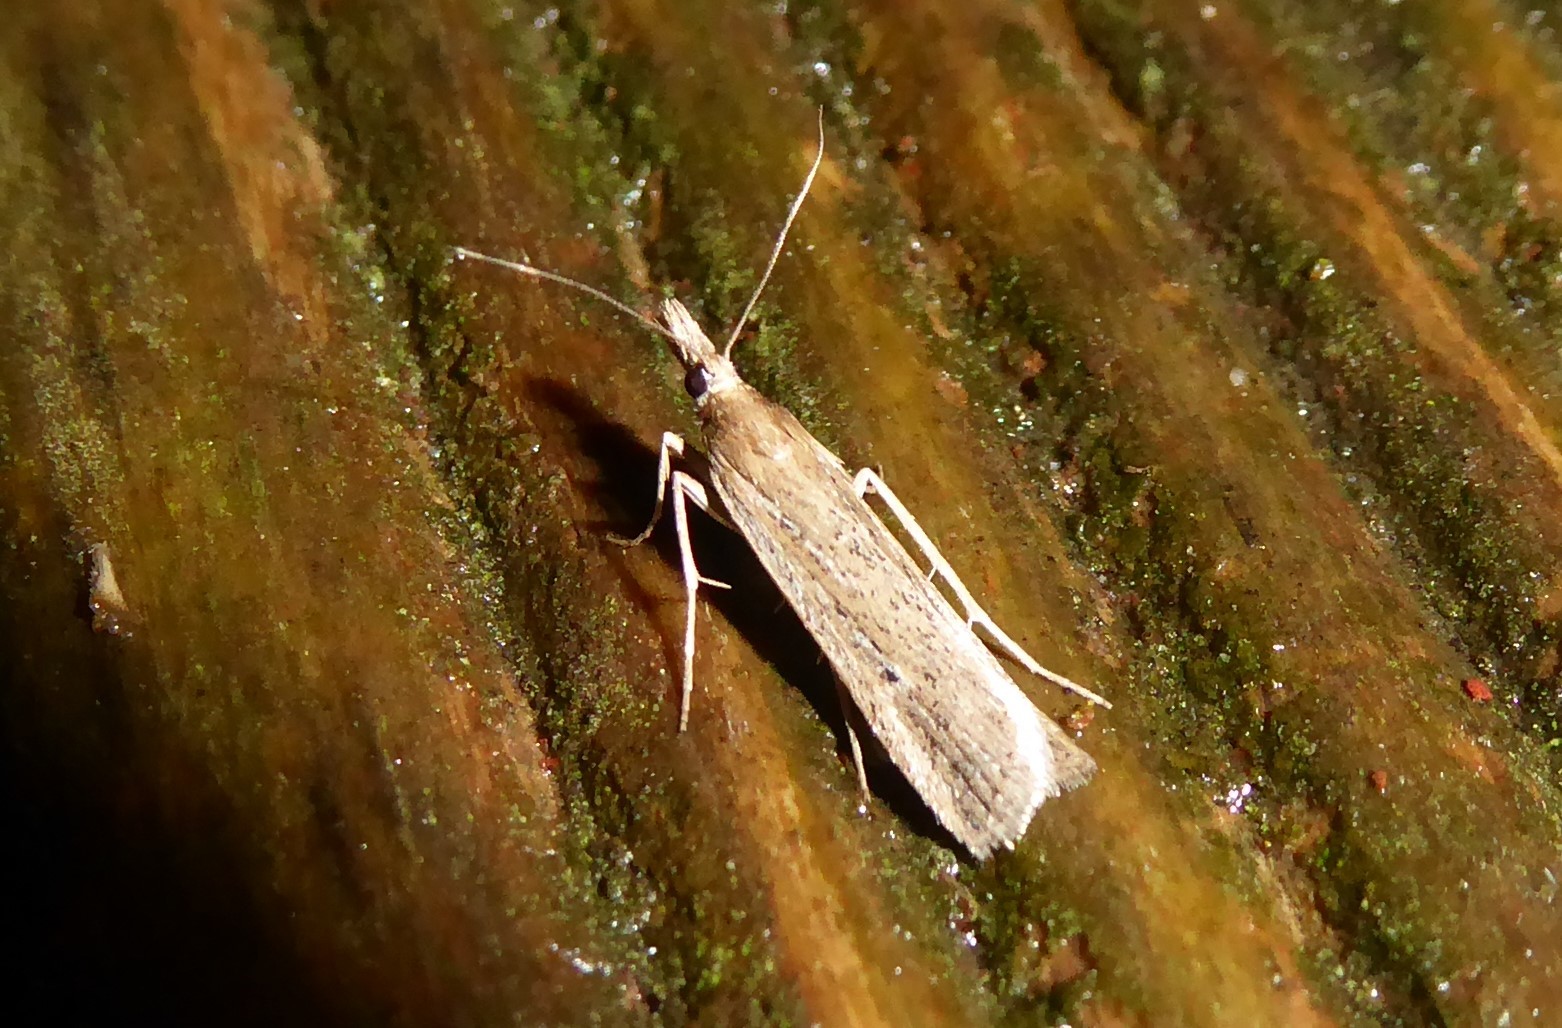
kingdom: Animalia
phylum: Arthropoda
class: Insecta
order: Lepidoptera
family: Crambidae
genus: Eudonia
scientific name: Eudonia sabulosella
